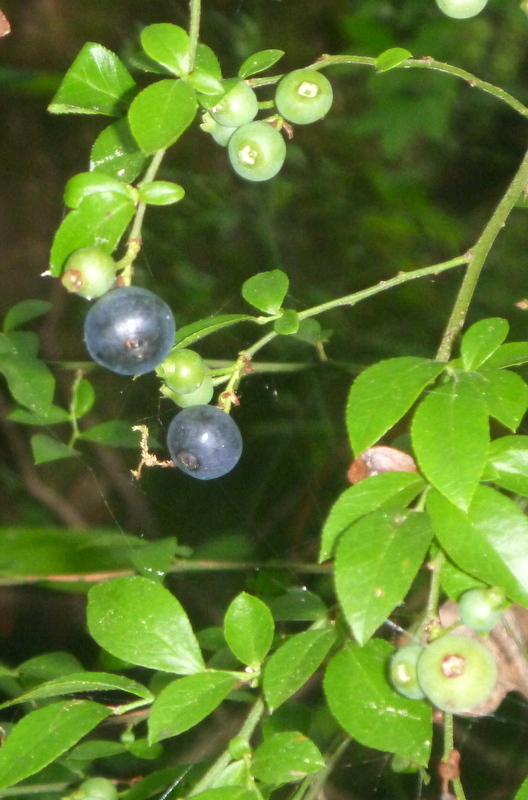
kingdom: Plantae
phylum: Tracheophyta
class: Magnoliopsida
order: Ericales
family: Ericaceae
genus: Vaccinium
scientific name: Vaccinium corymbosum
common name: Blueberry
